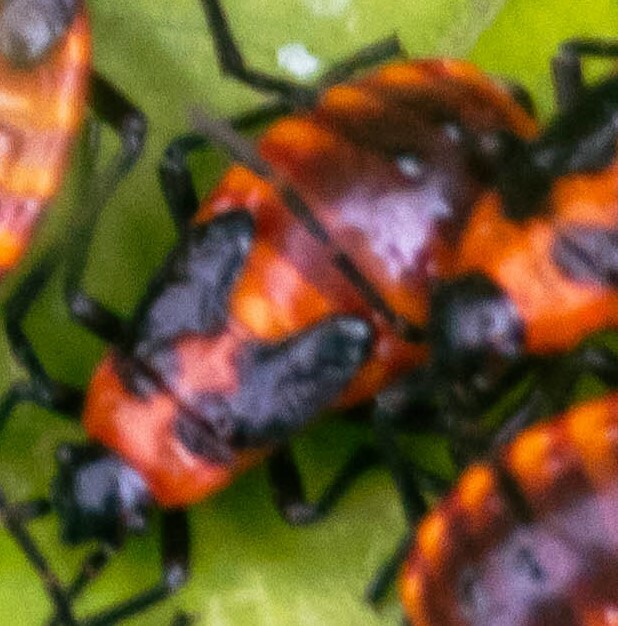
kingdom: Animalia
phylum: Arthropoda
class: Insecta
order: Hemiptera
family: Lygaeidae
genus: Tropidothorax
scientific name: Tropidothorax leucopterus
